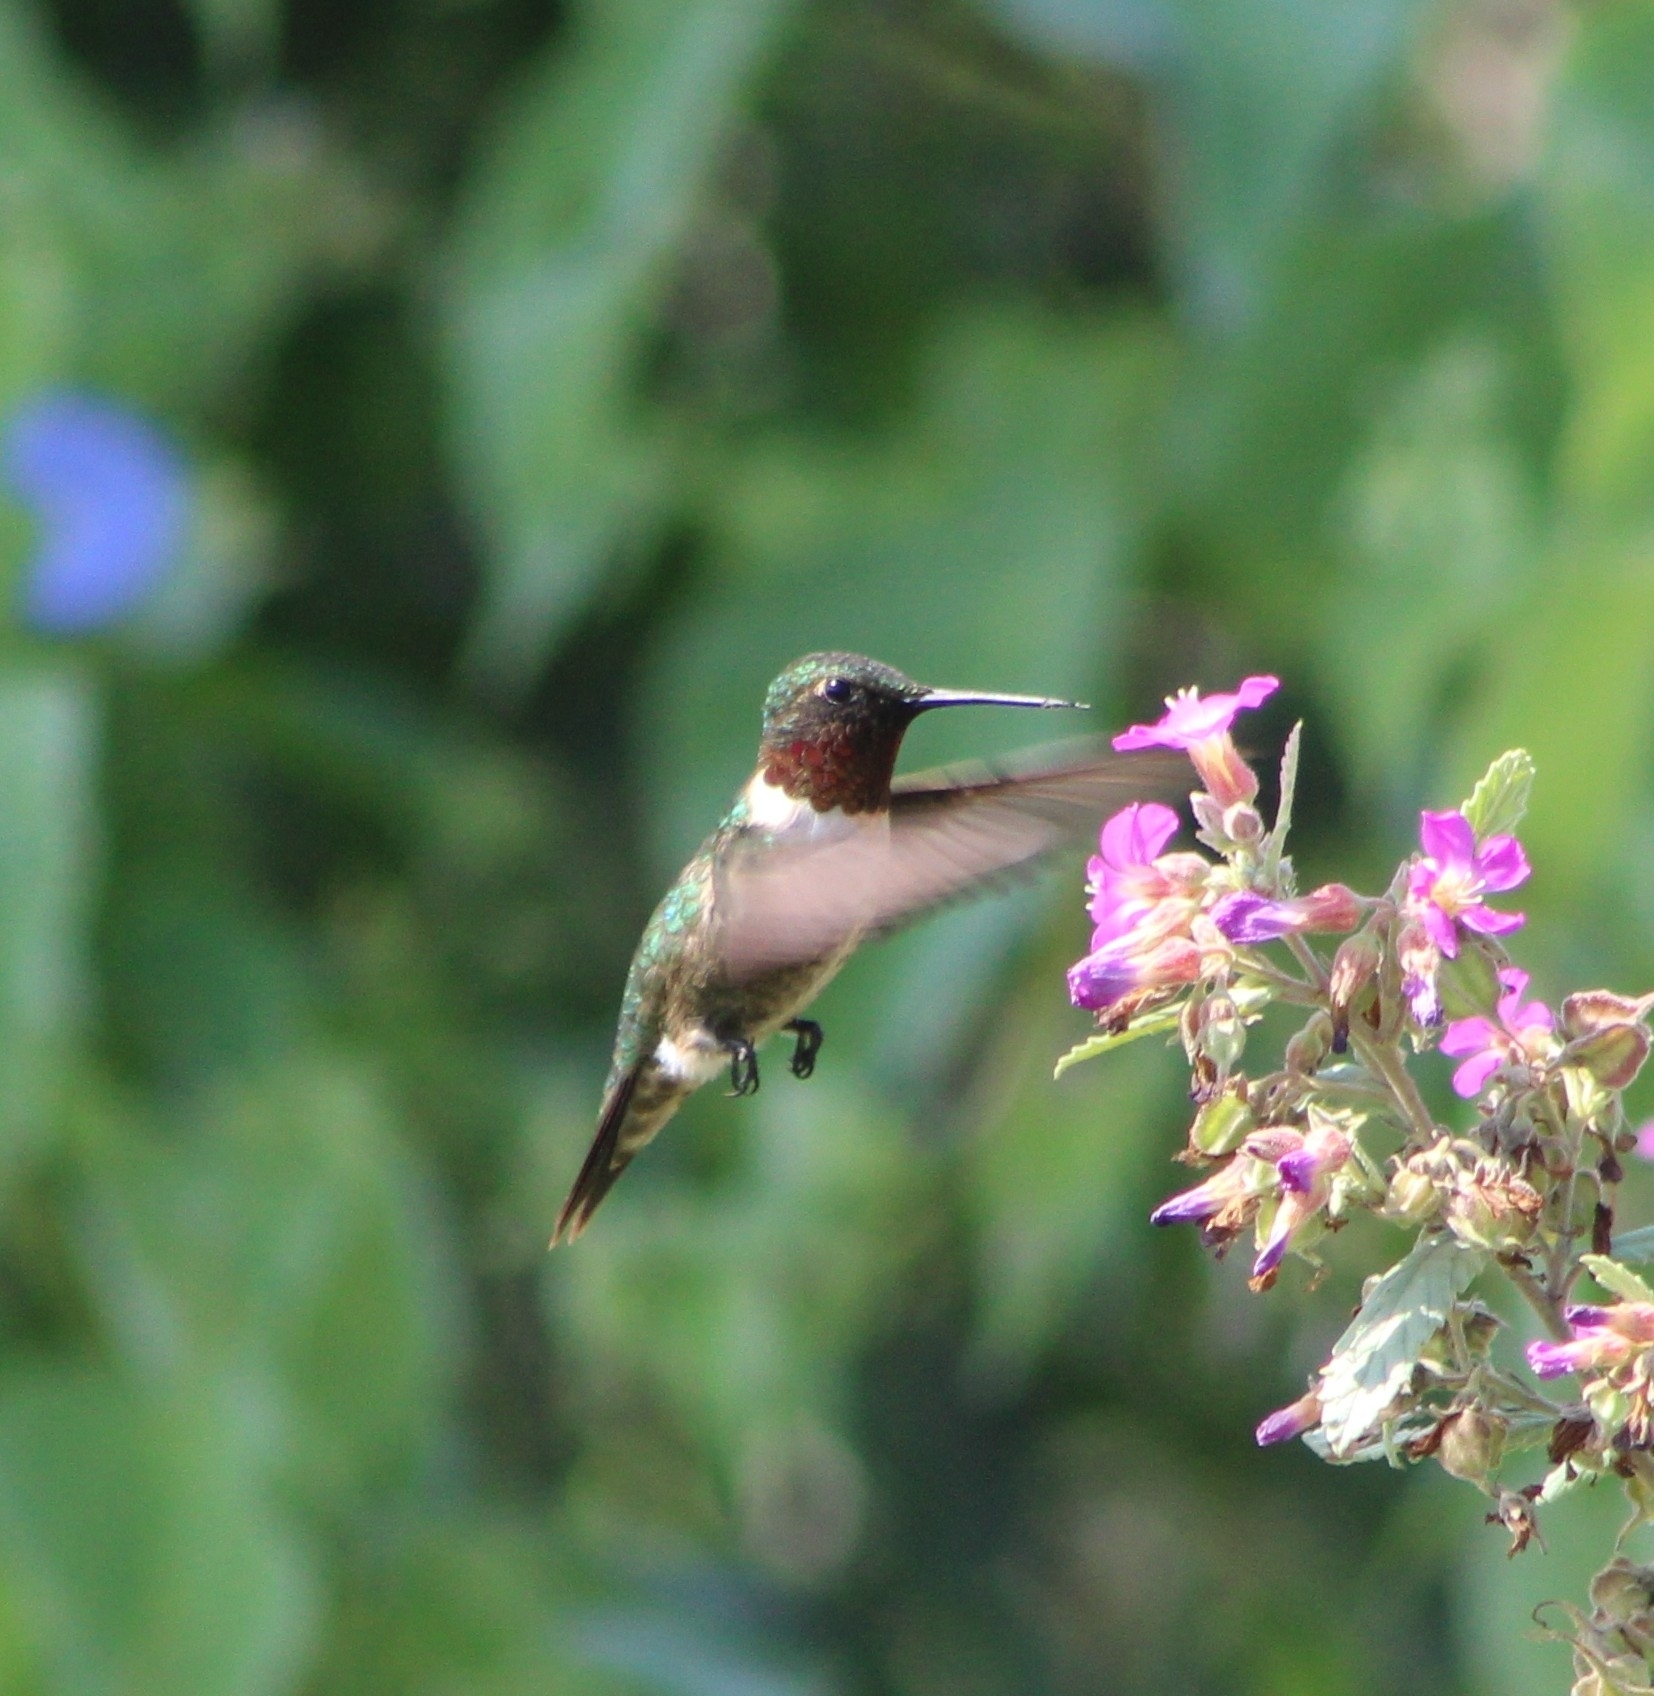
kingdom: Animalia
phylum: Chordata
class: Aves
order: Apodiformes
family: Trochilidae
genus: Archilochus
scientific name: Archilochus colubris
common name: Ruby-throated hummingbird
